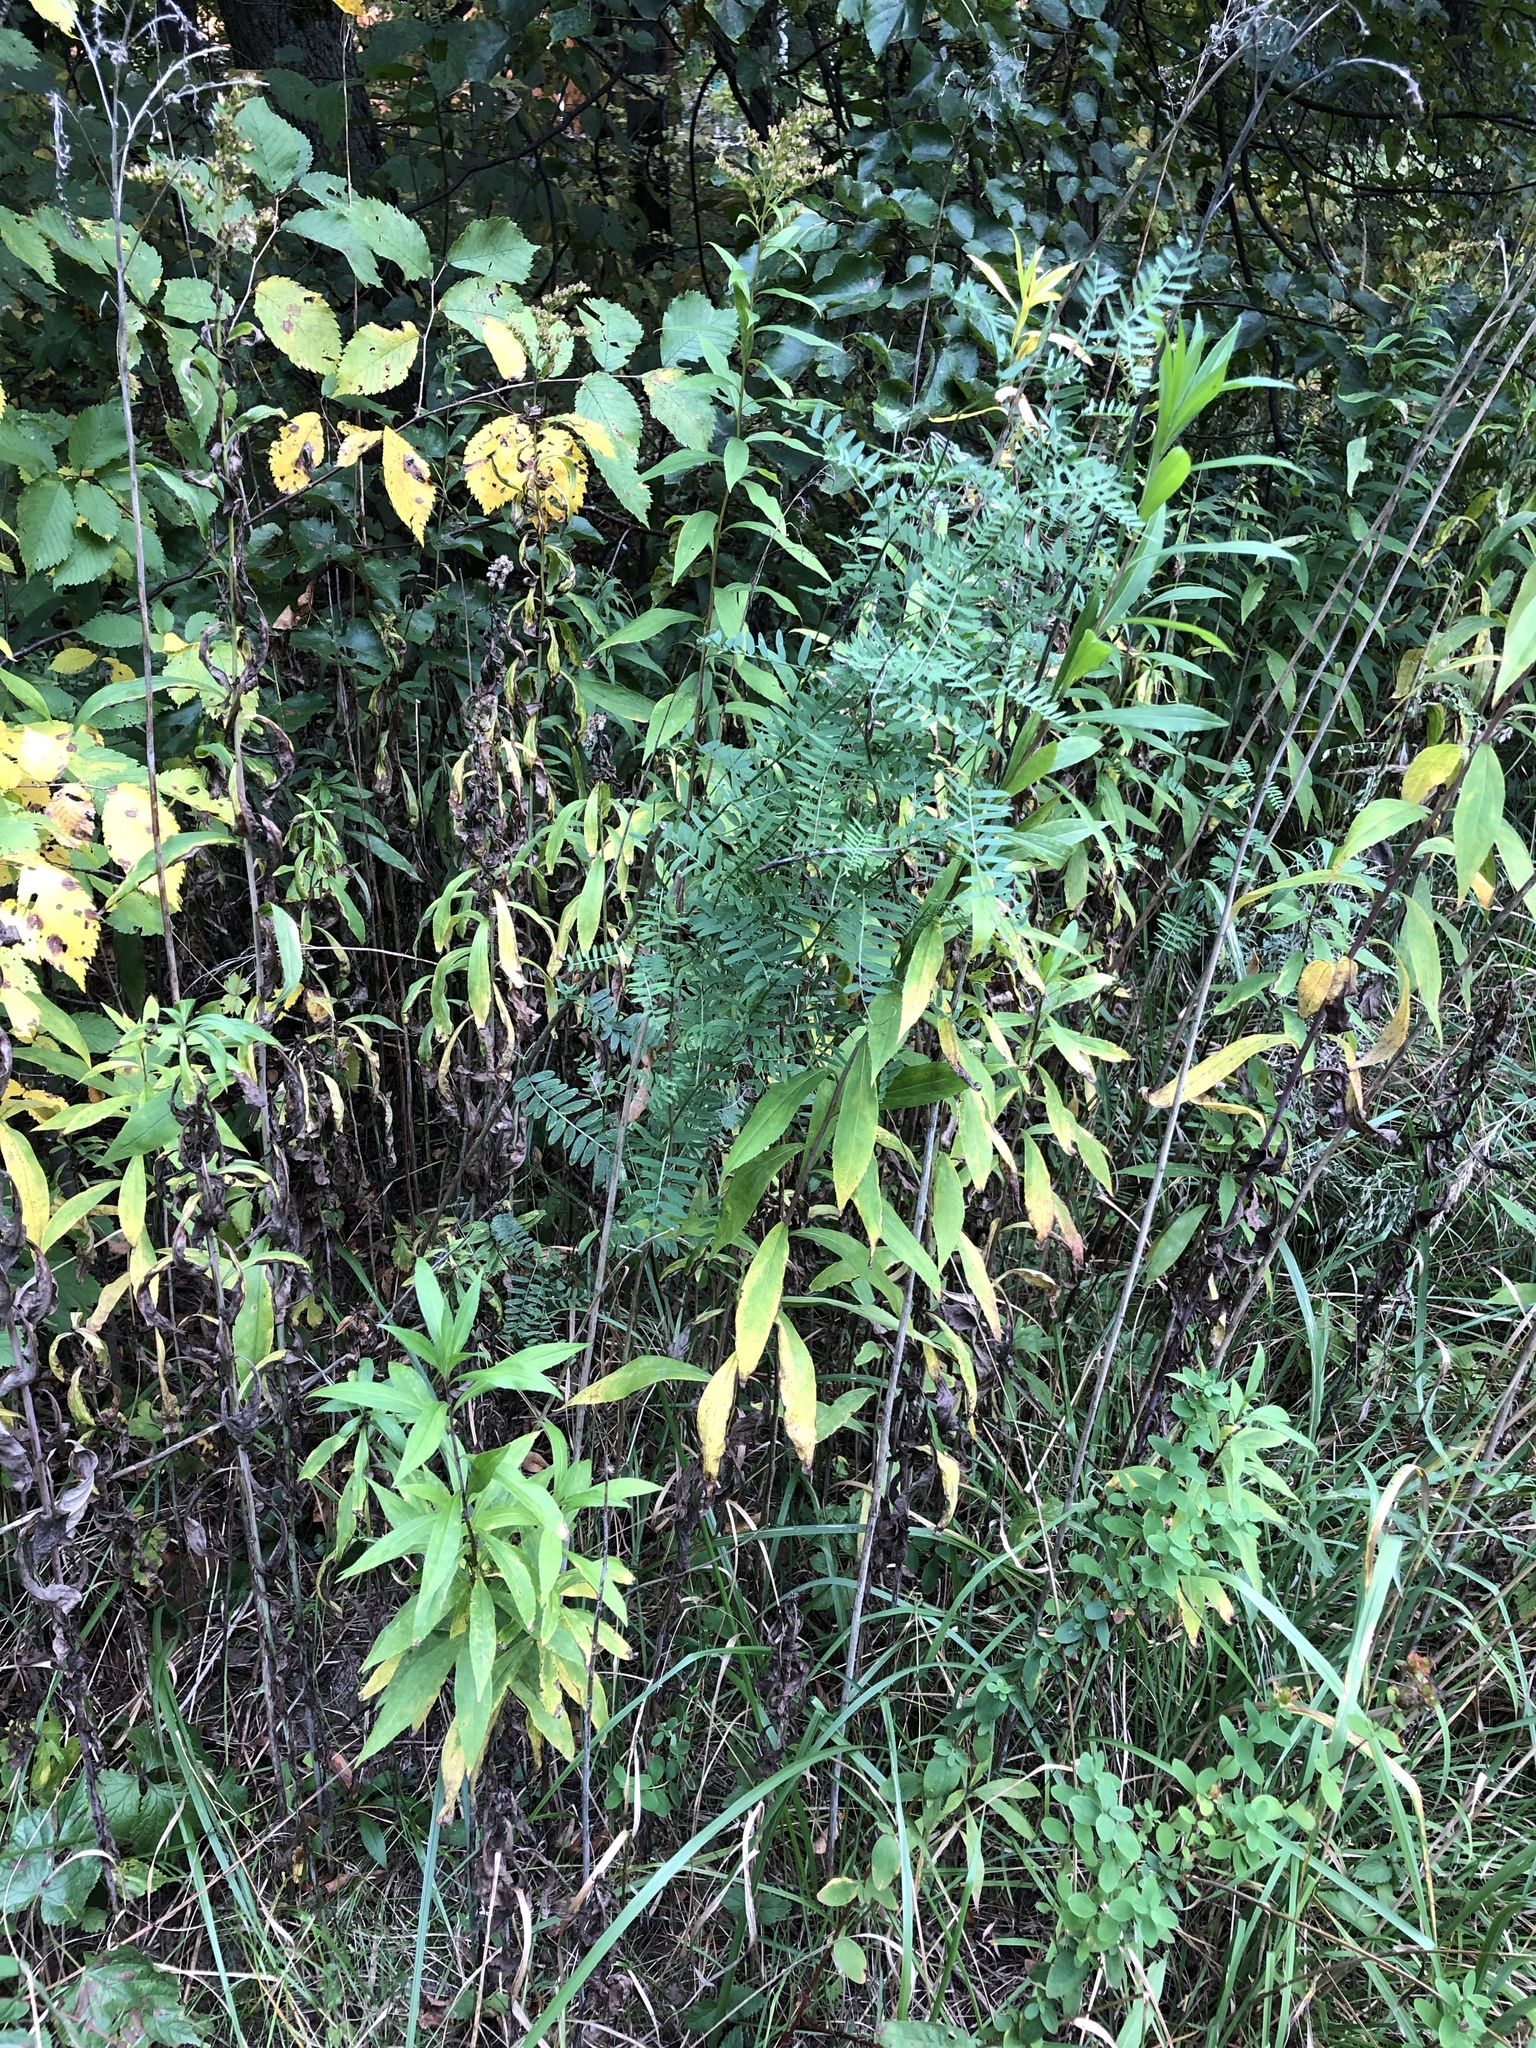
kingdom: Plantae
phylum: Tracheophyta
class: Magnoliopsida
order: Fabales
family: Fabaceae
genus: Vicia
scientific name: Vicia cracca
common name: Bird vetch
